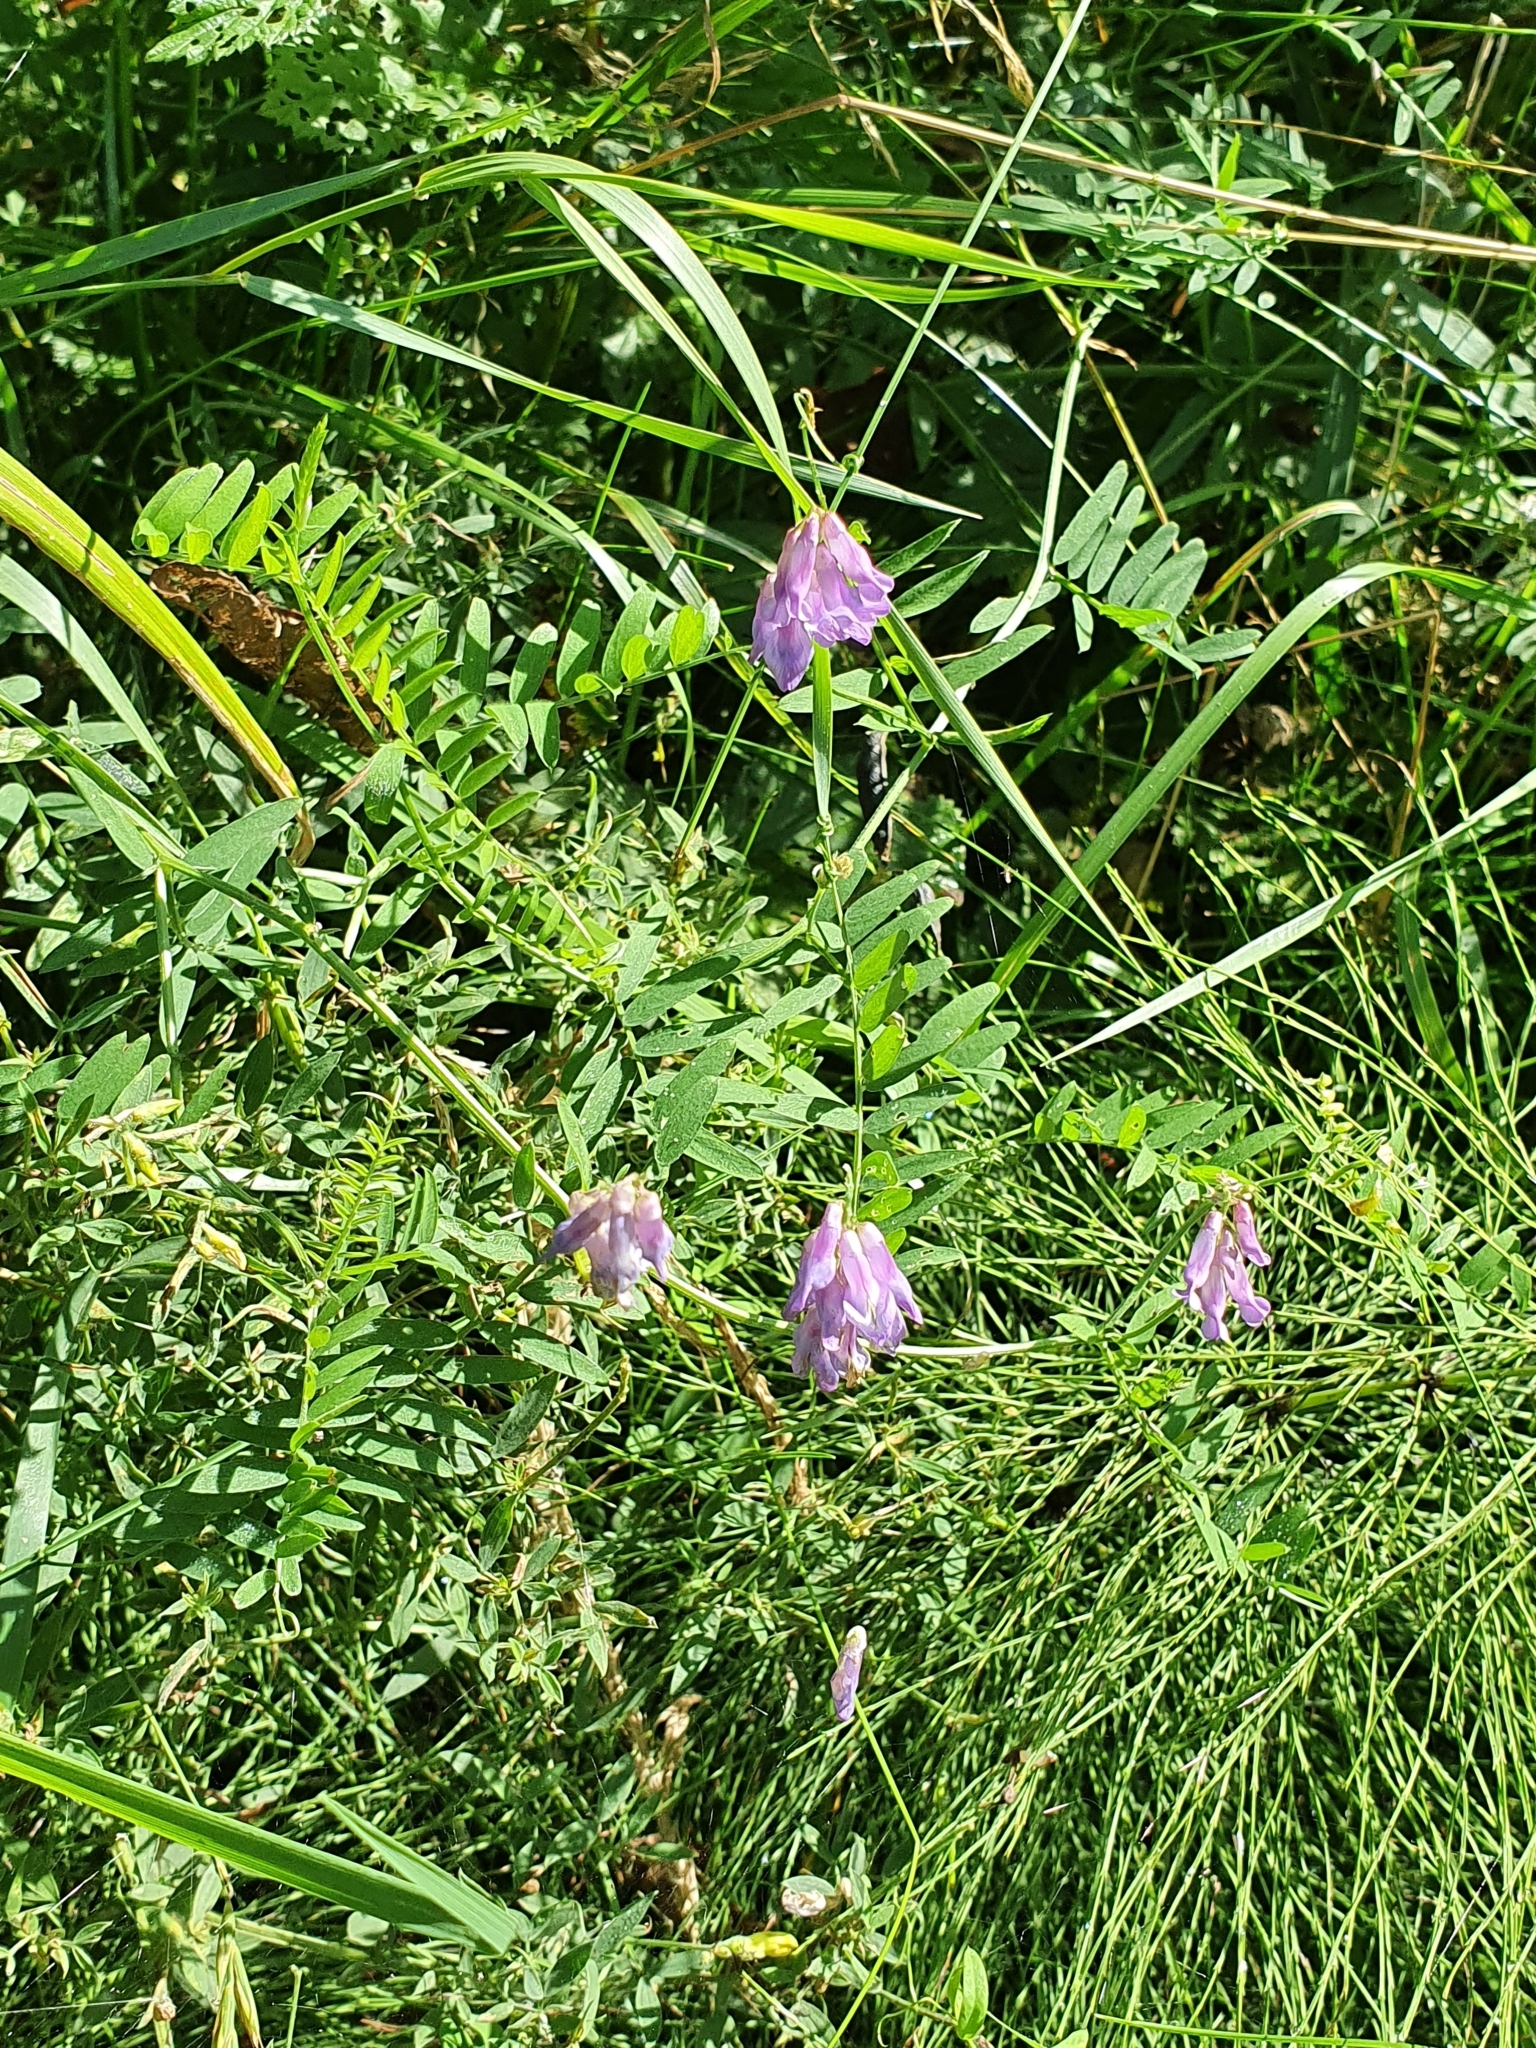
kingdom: Plantae
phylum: Tracheophyta
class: Magnoliopsida
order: Fabales
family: Fabaceae
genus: Vicia
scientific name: Vicia cracca
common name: Bird vetch
